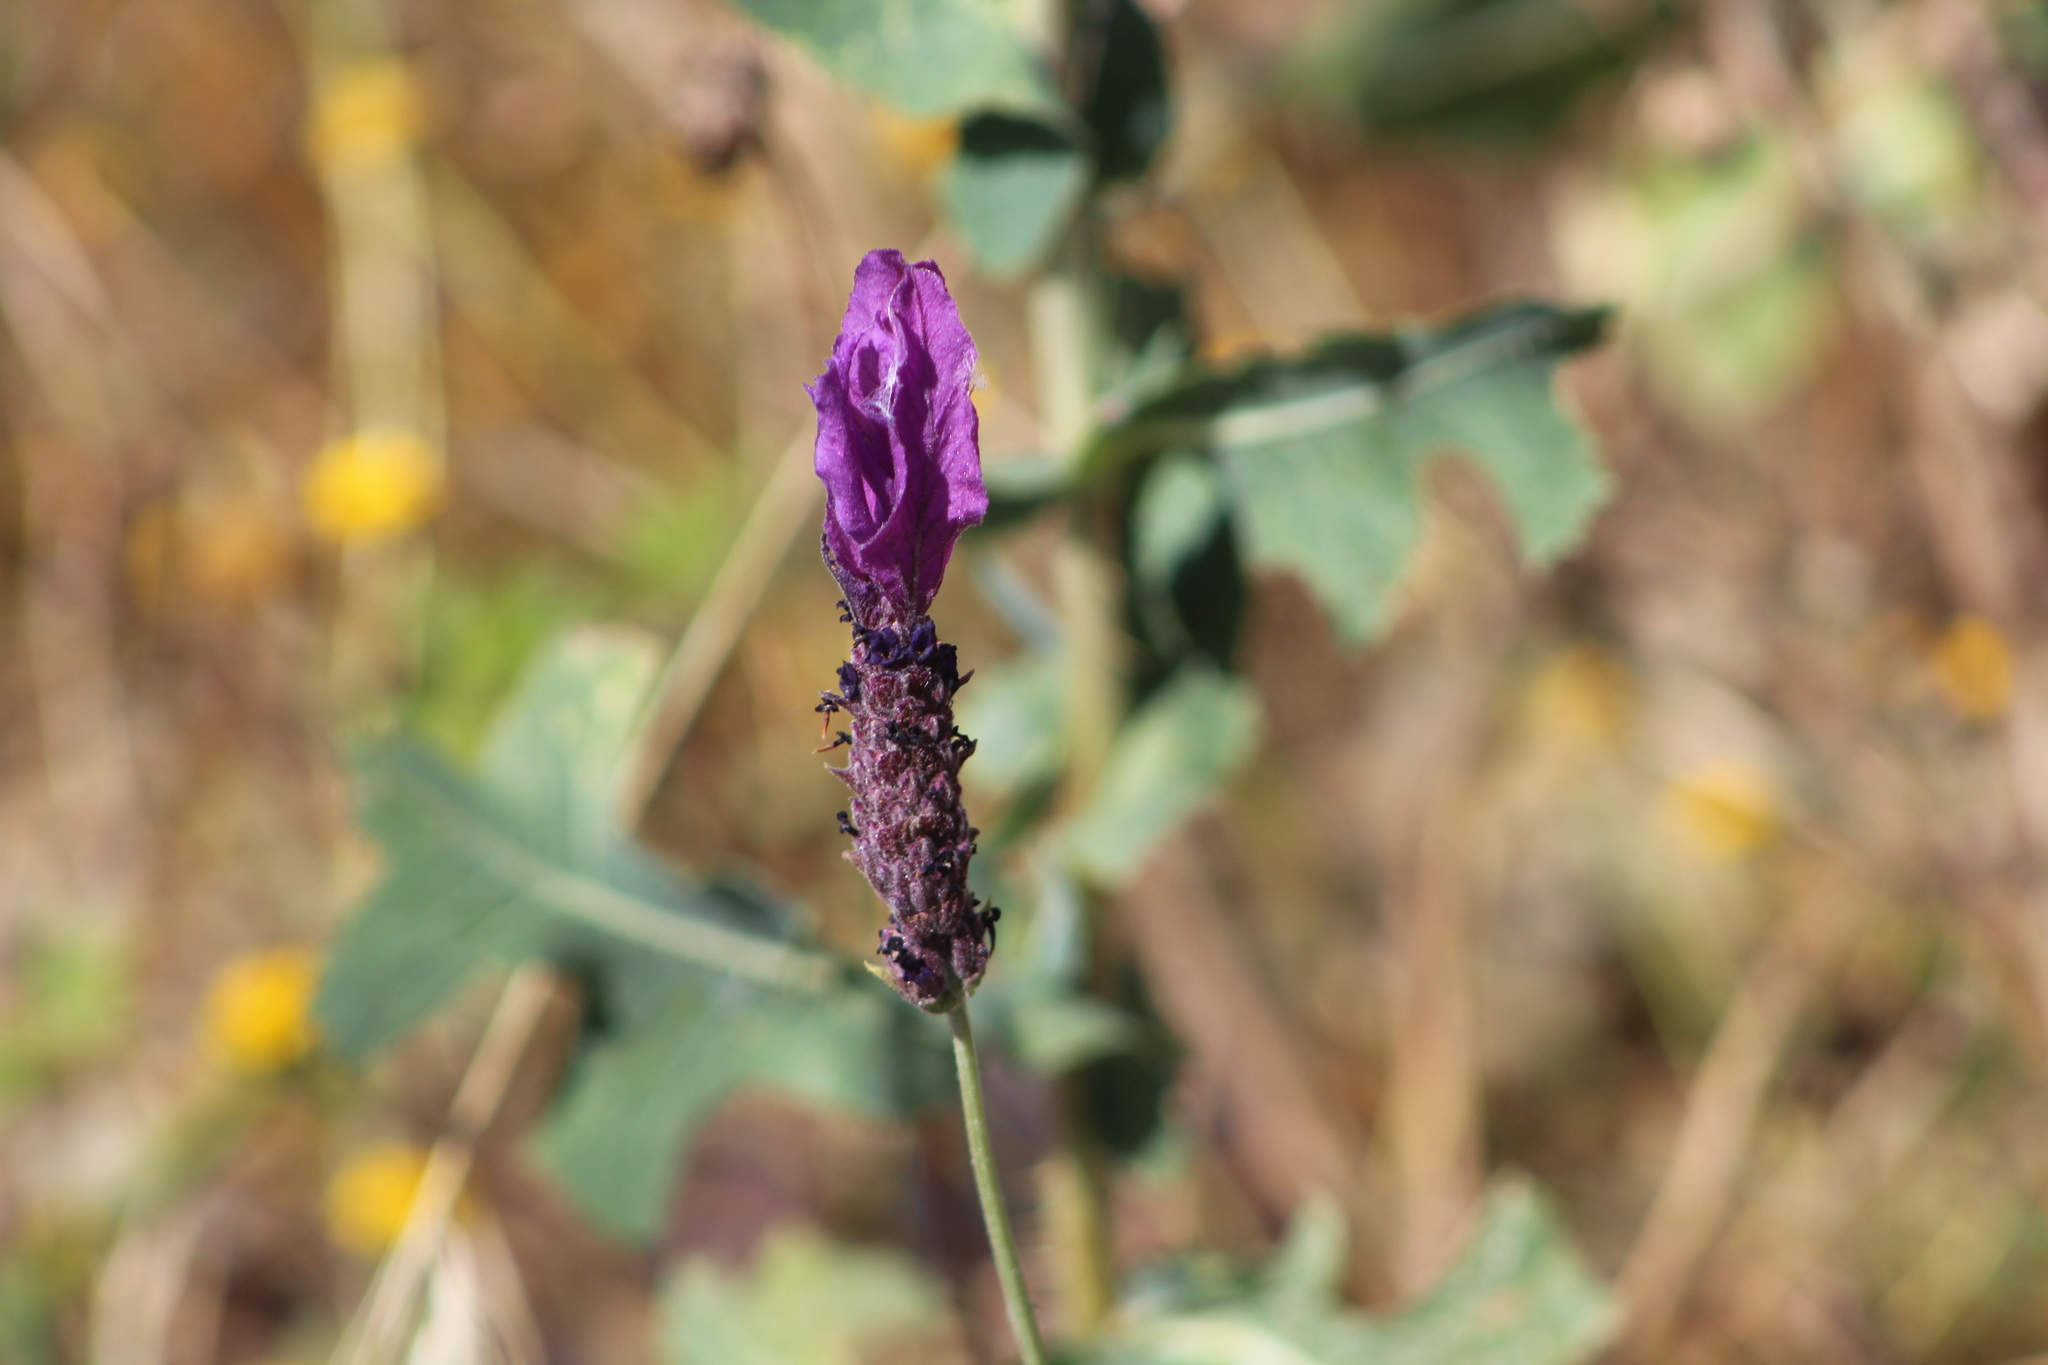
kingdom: Plantae
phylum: Tracheophyta
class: Magnoliopsida
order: Lamiales
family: Lamiaceae
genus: Lavandula
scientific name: Lavandula pedunculata
